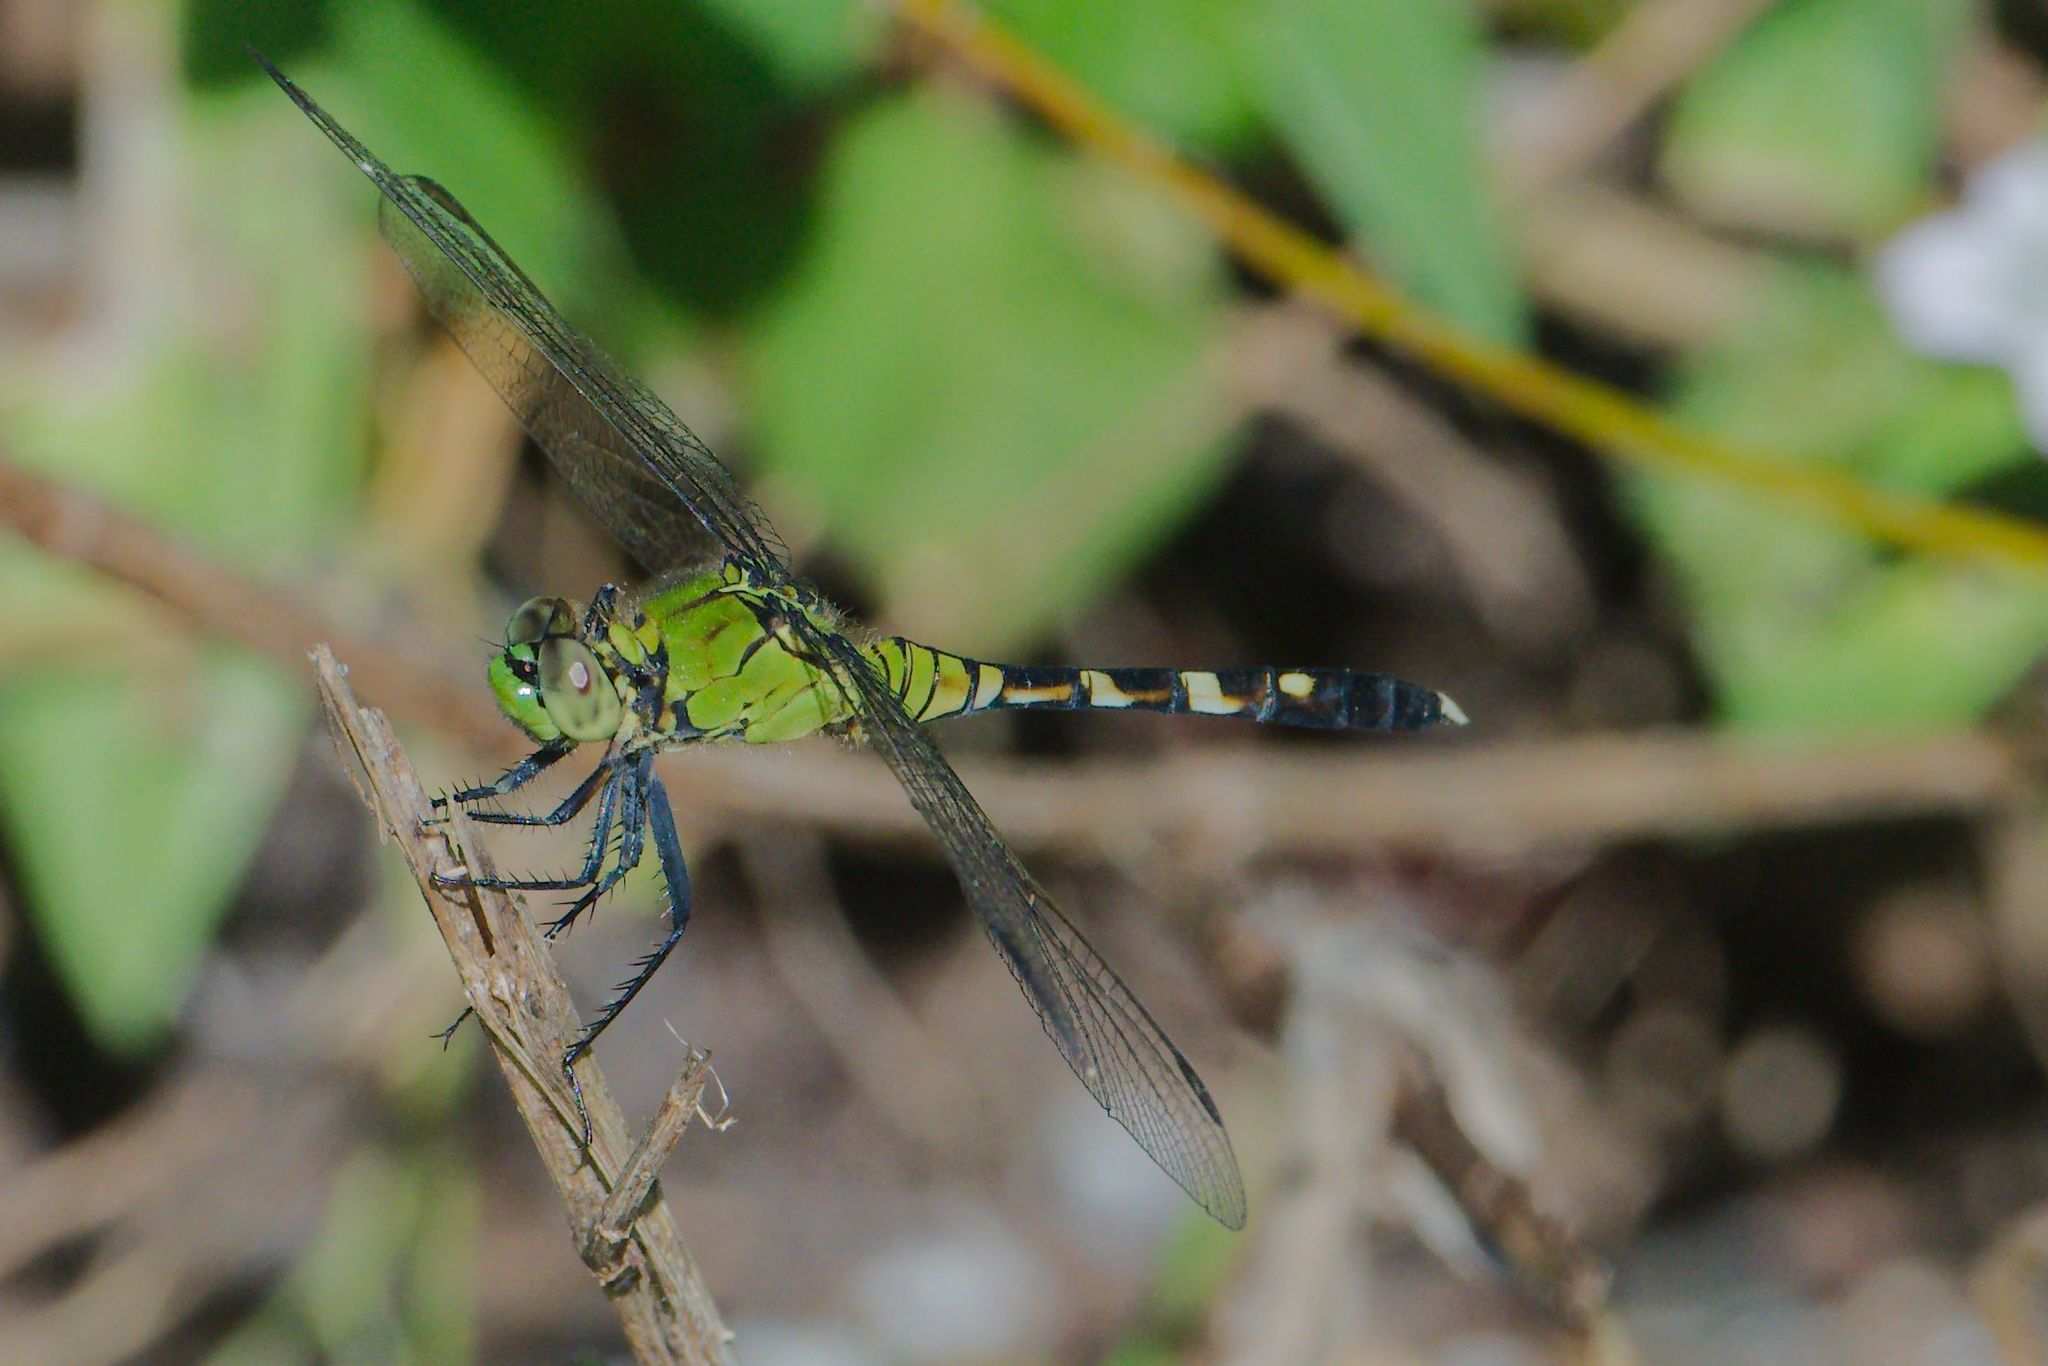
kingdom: Animalia
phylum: Arthropoda
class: Insecta
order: Odonata
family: Libellulidae
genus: Erythemis
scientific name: Erythemis simplicicollis
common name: Eastern pondhawk
